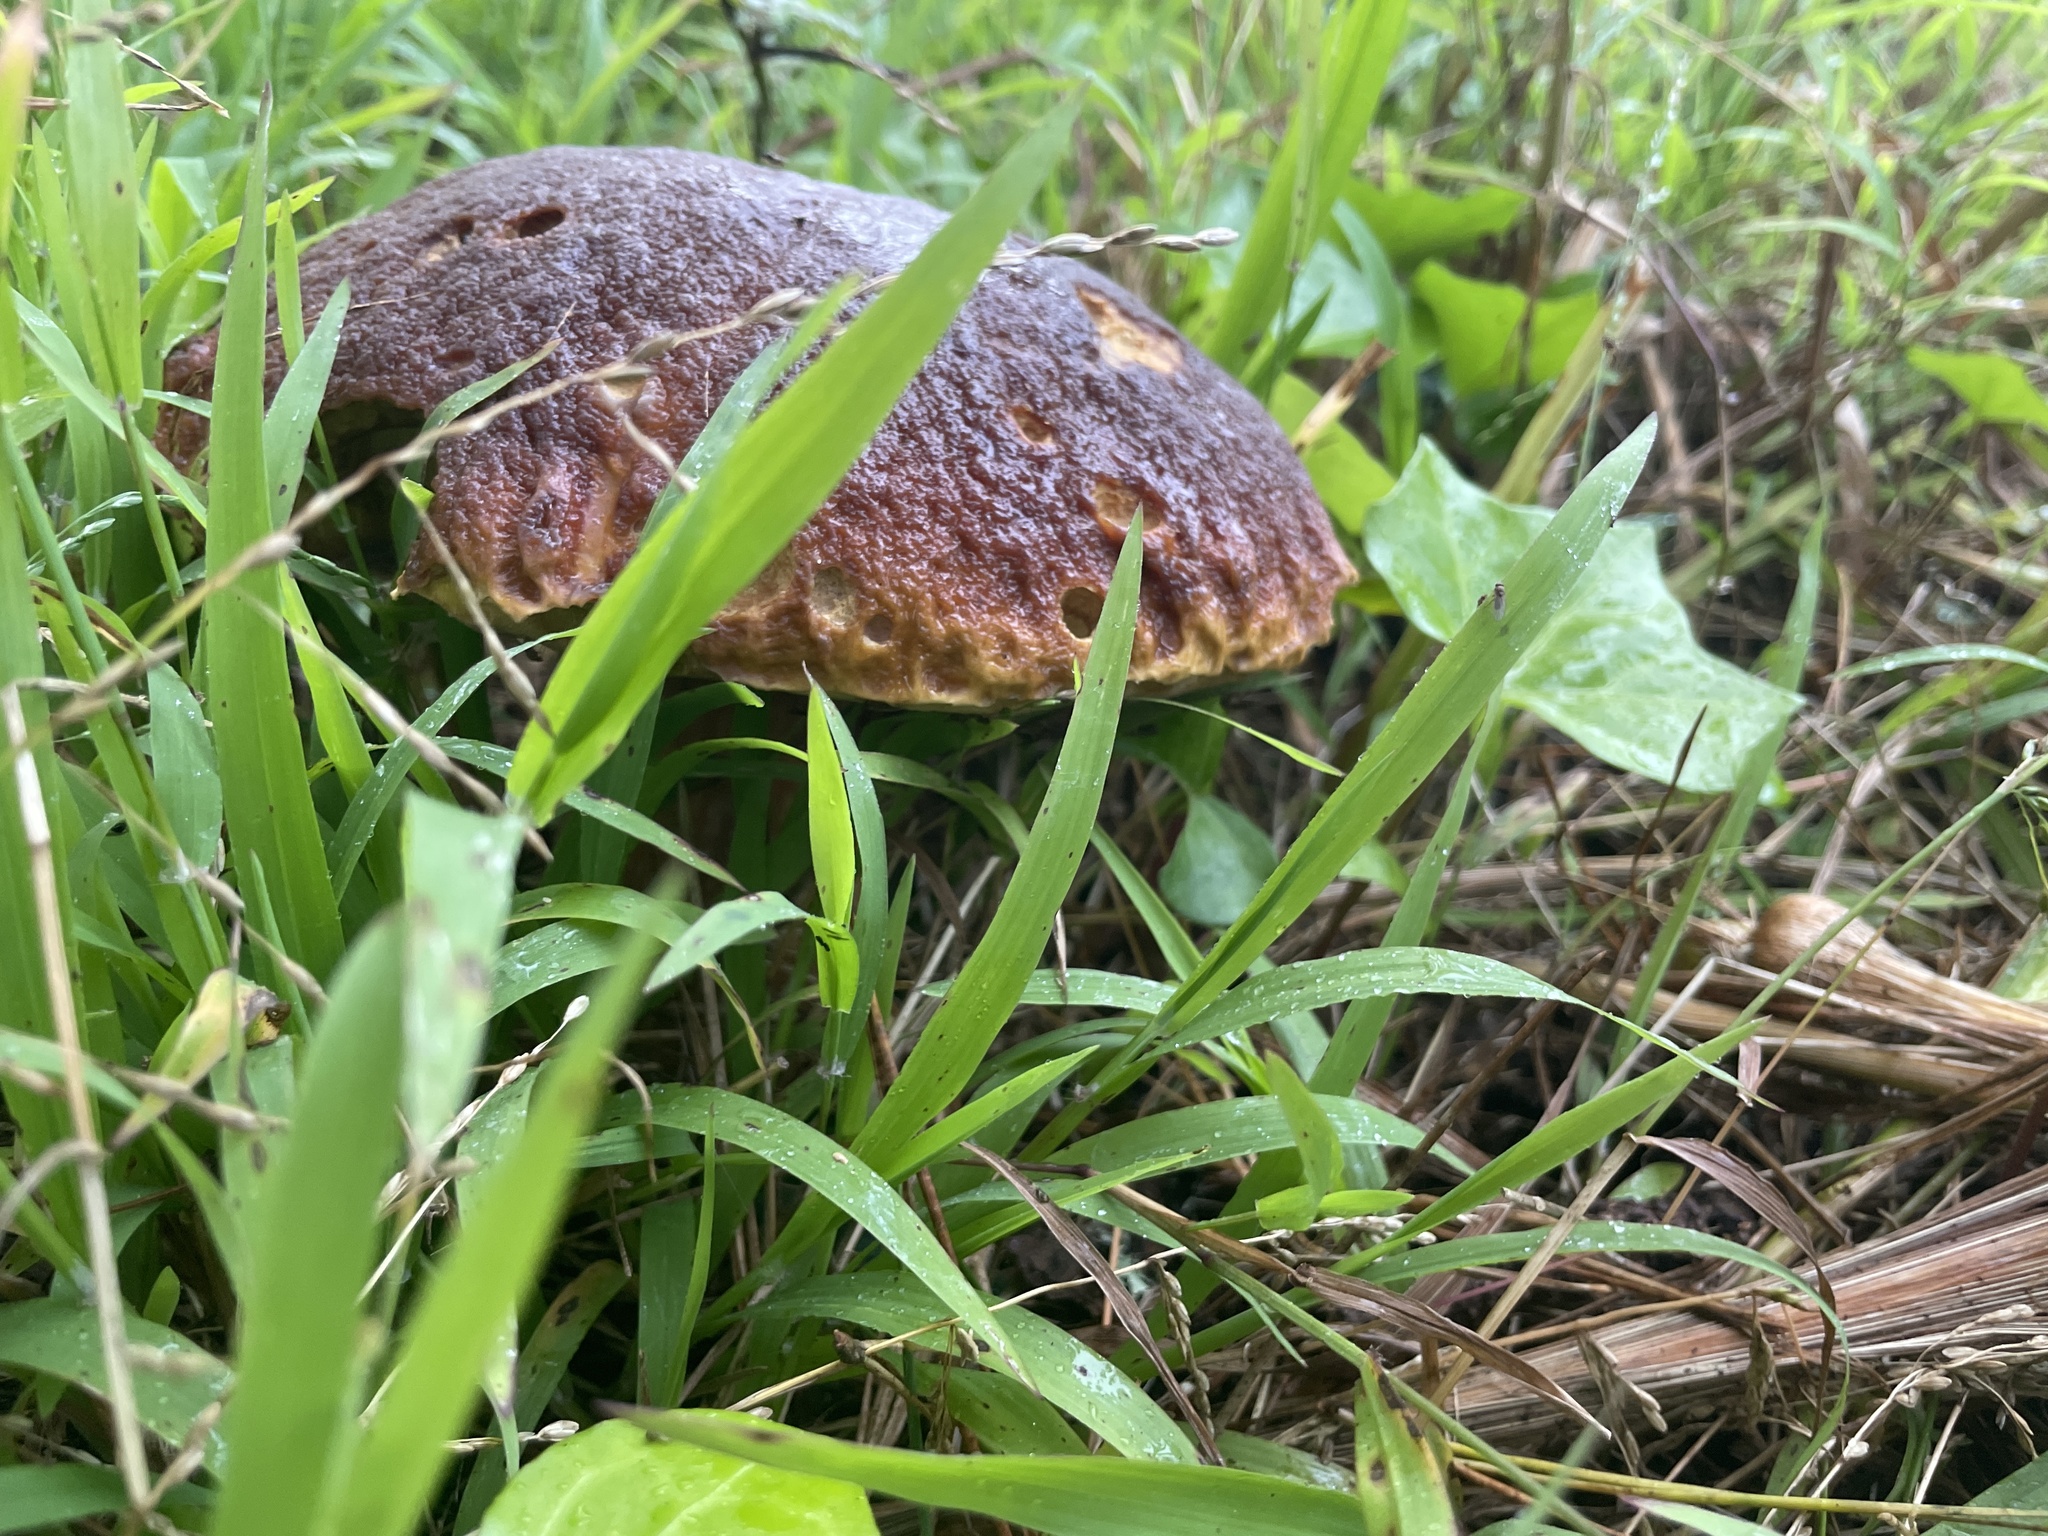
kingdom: Fungi
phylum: Basidiomycota
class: Agaricomycetes
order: Boletales
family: Boletaceae
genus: Boletus
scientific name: Boletus edulis
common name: Cep
